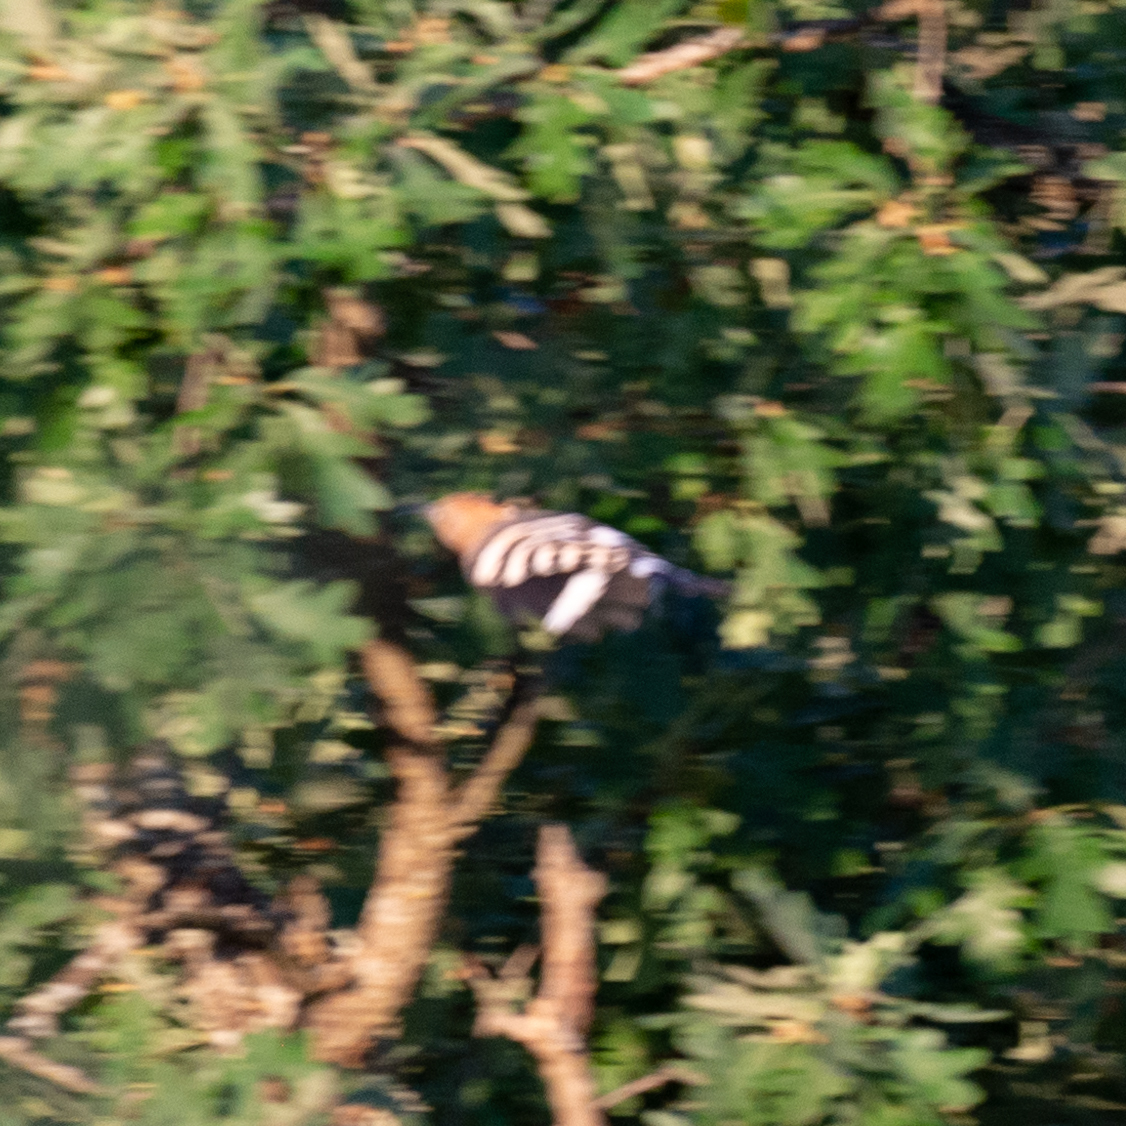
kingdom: Animalia
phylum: Chordata
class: Aves
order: Bucerotiformes
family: Upupidae
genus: Upupa
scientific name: Upupa epops
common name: Eurasian hoopoe
